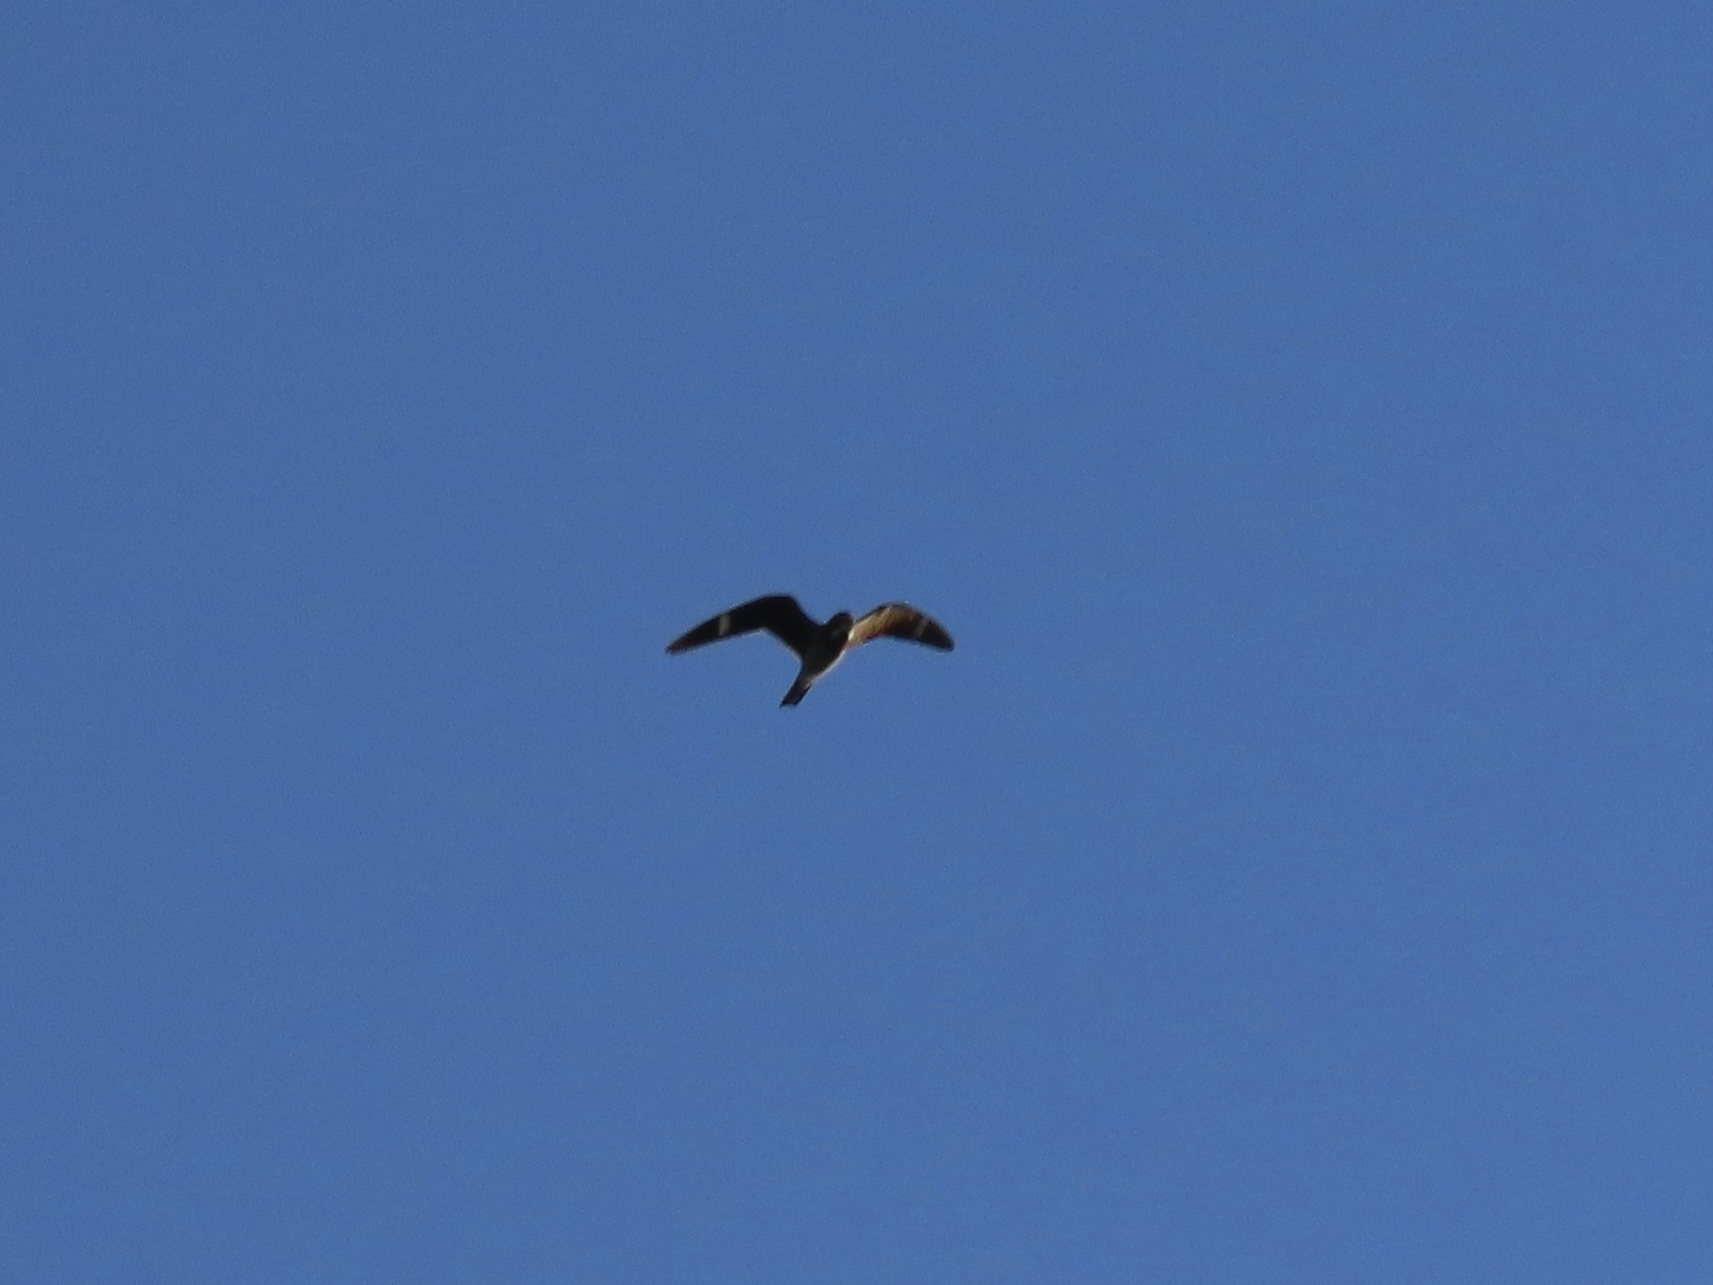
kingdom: Animalia
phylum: Chordata
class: Aves
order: Caprimulgiformes
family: Caprimulgidae
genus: Chordeiles
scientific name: Chordeiles minor
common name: Common nighthawk
